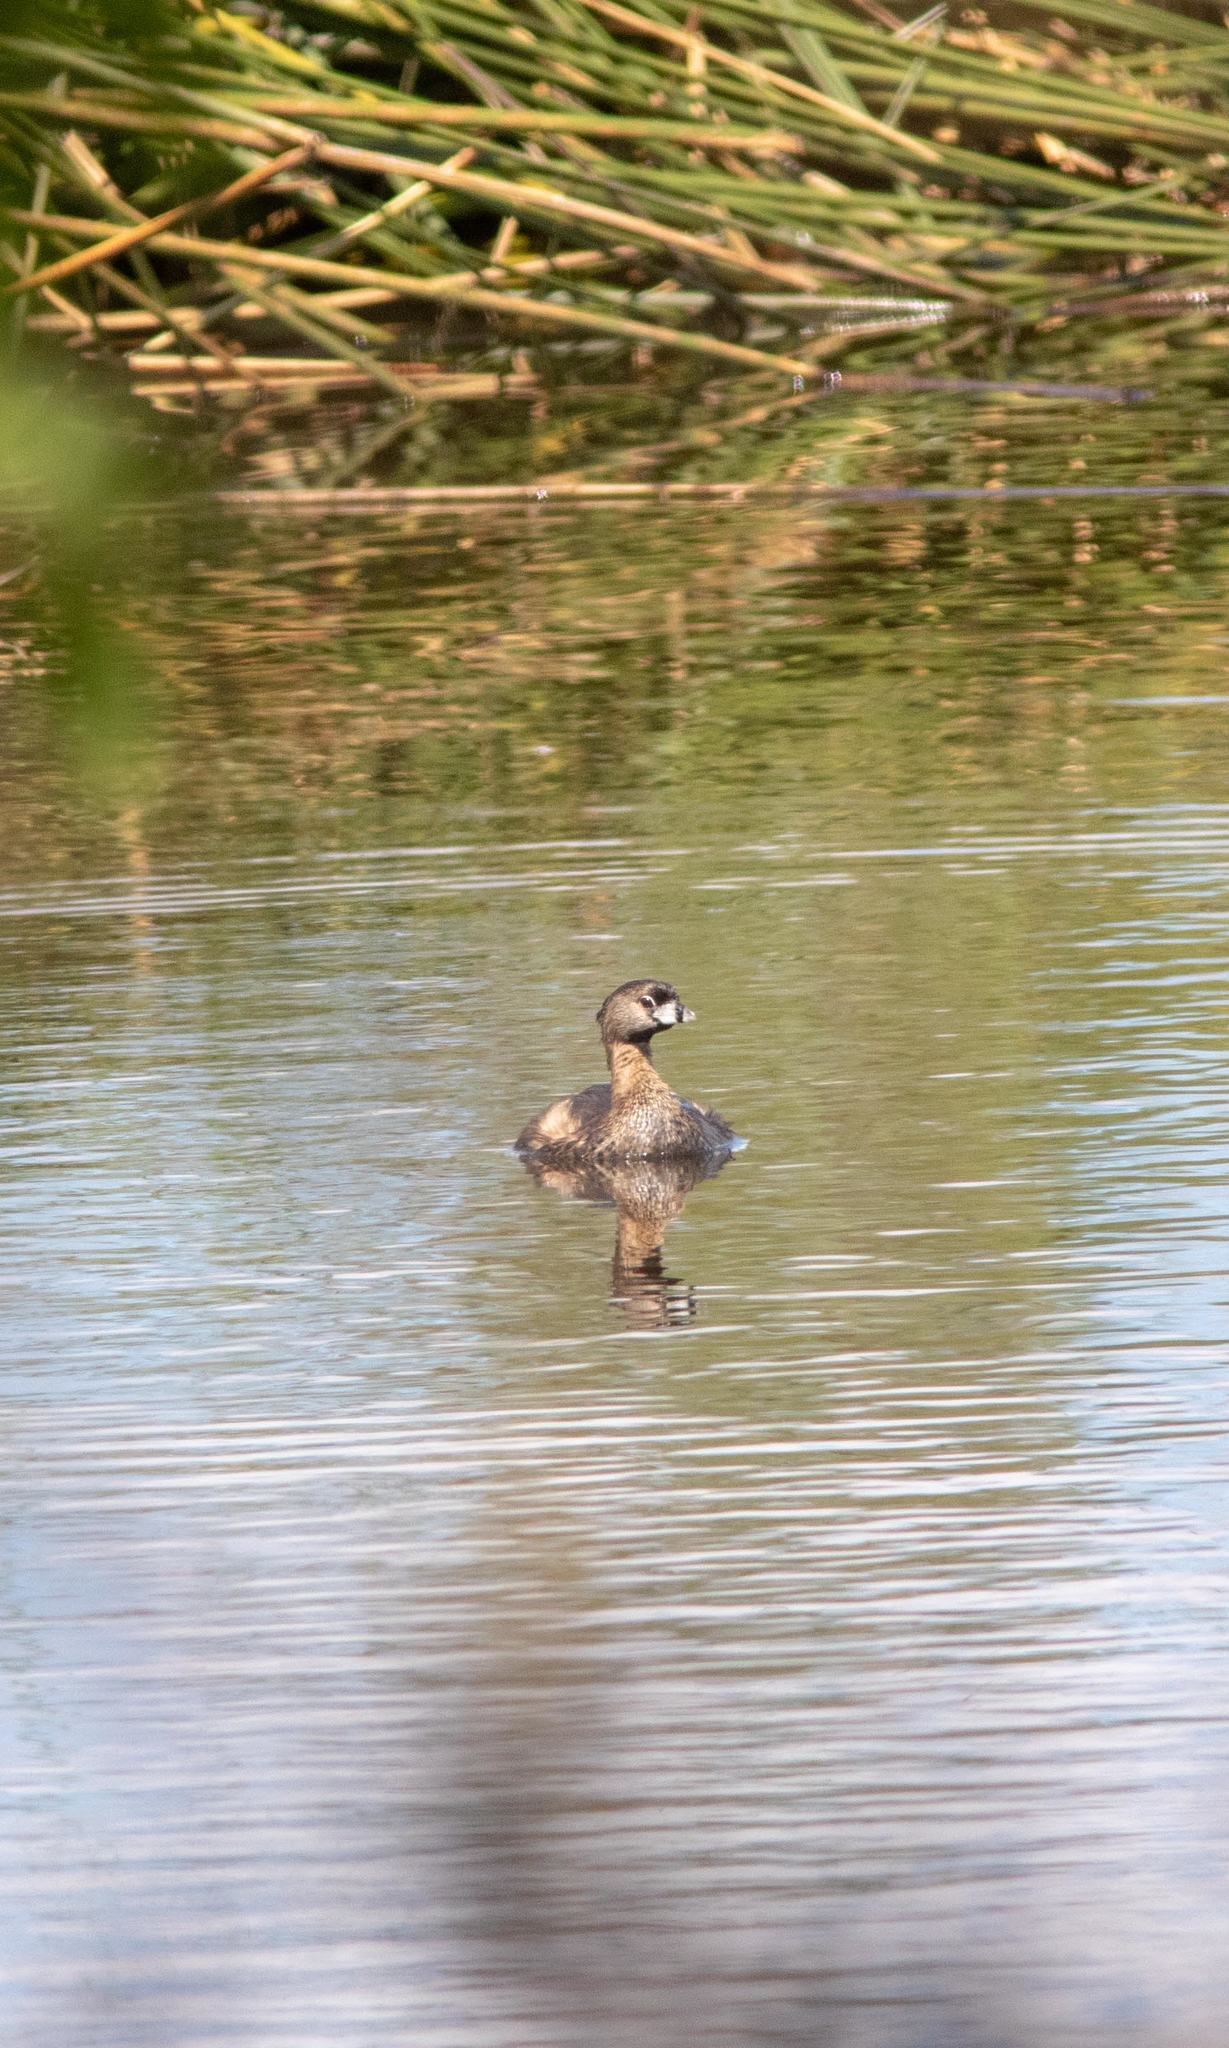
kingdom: Animalia
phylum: Chordata
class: Aves
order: Podicipediformes
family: Podicipedidae
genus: Podilymbus
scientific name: Podilymbus podiceps
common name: Pied-billed grebe
